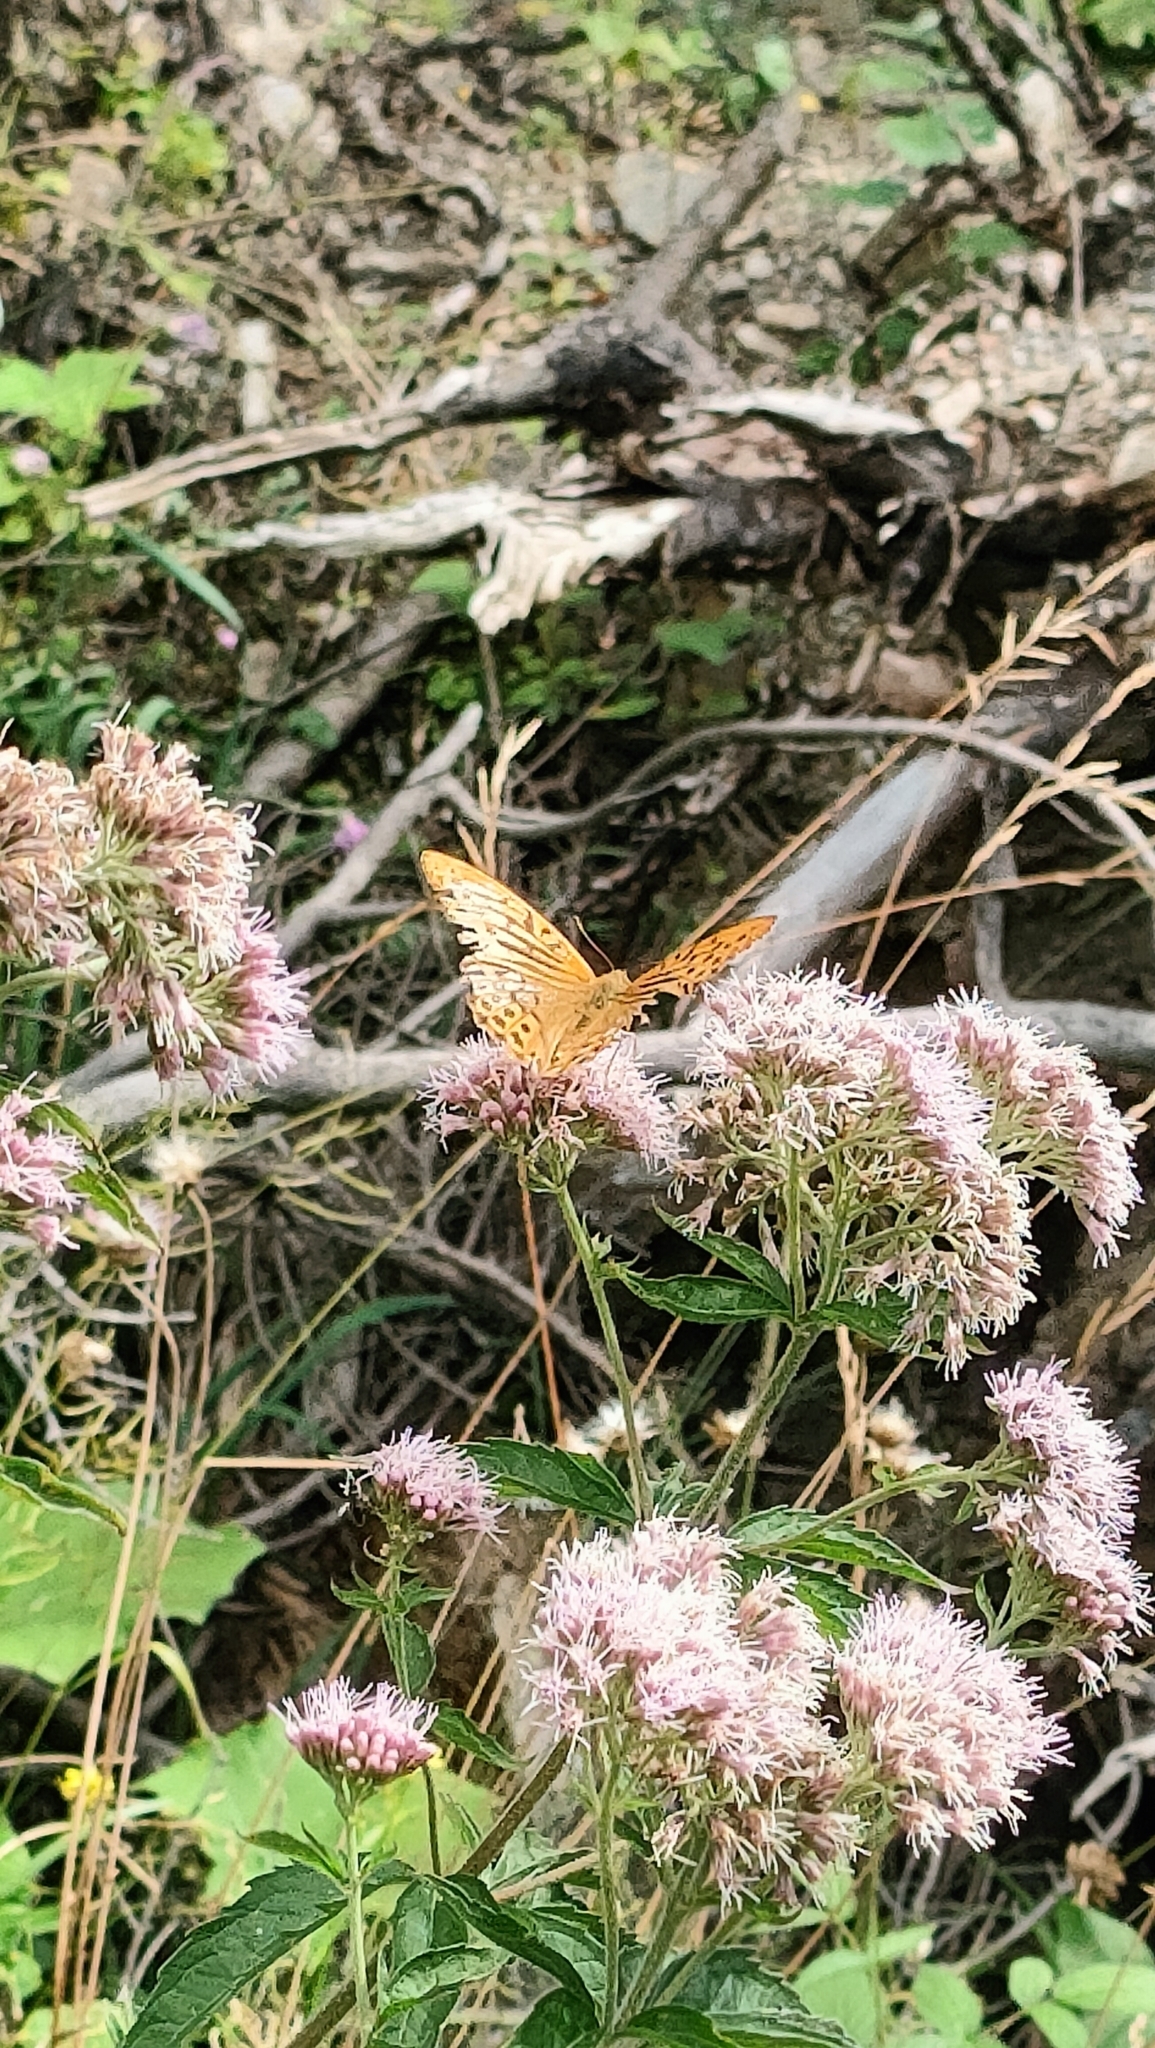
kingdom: Animalia
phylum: Arthropoda
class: Insecta
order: Lepidoptera
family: Nymphalidae
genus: Argynnis
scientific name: Argynnis paphia
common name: Silver-washed fritillary
